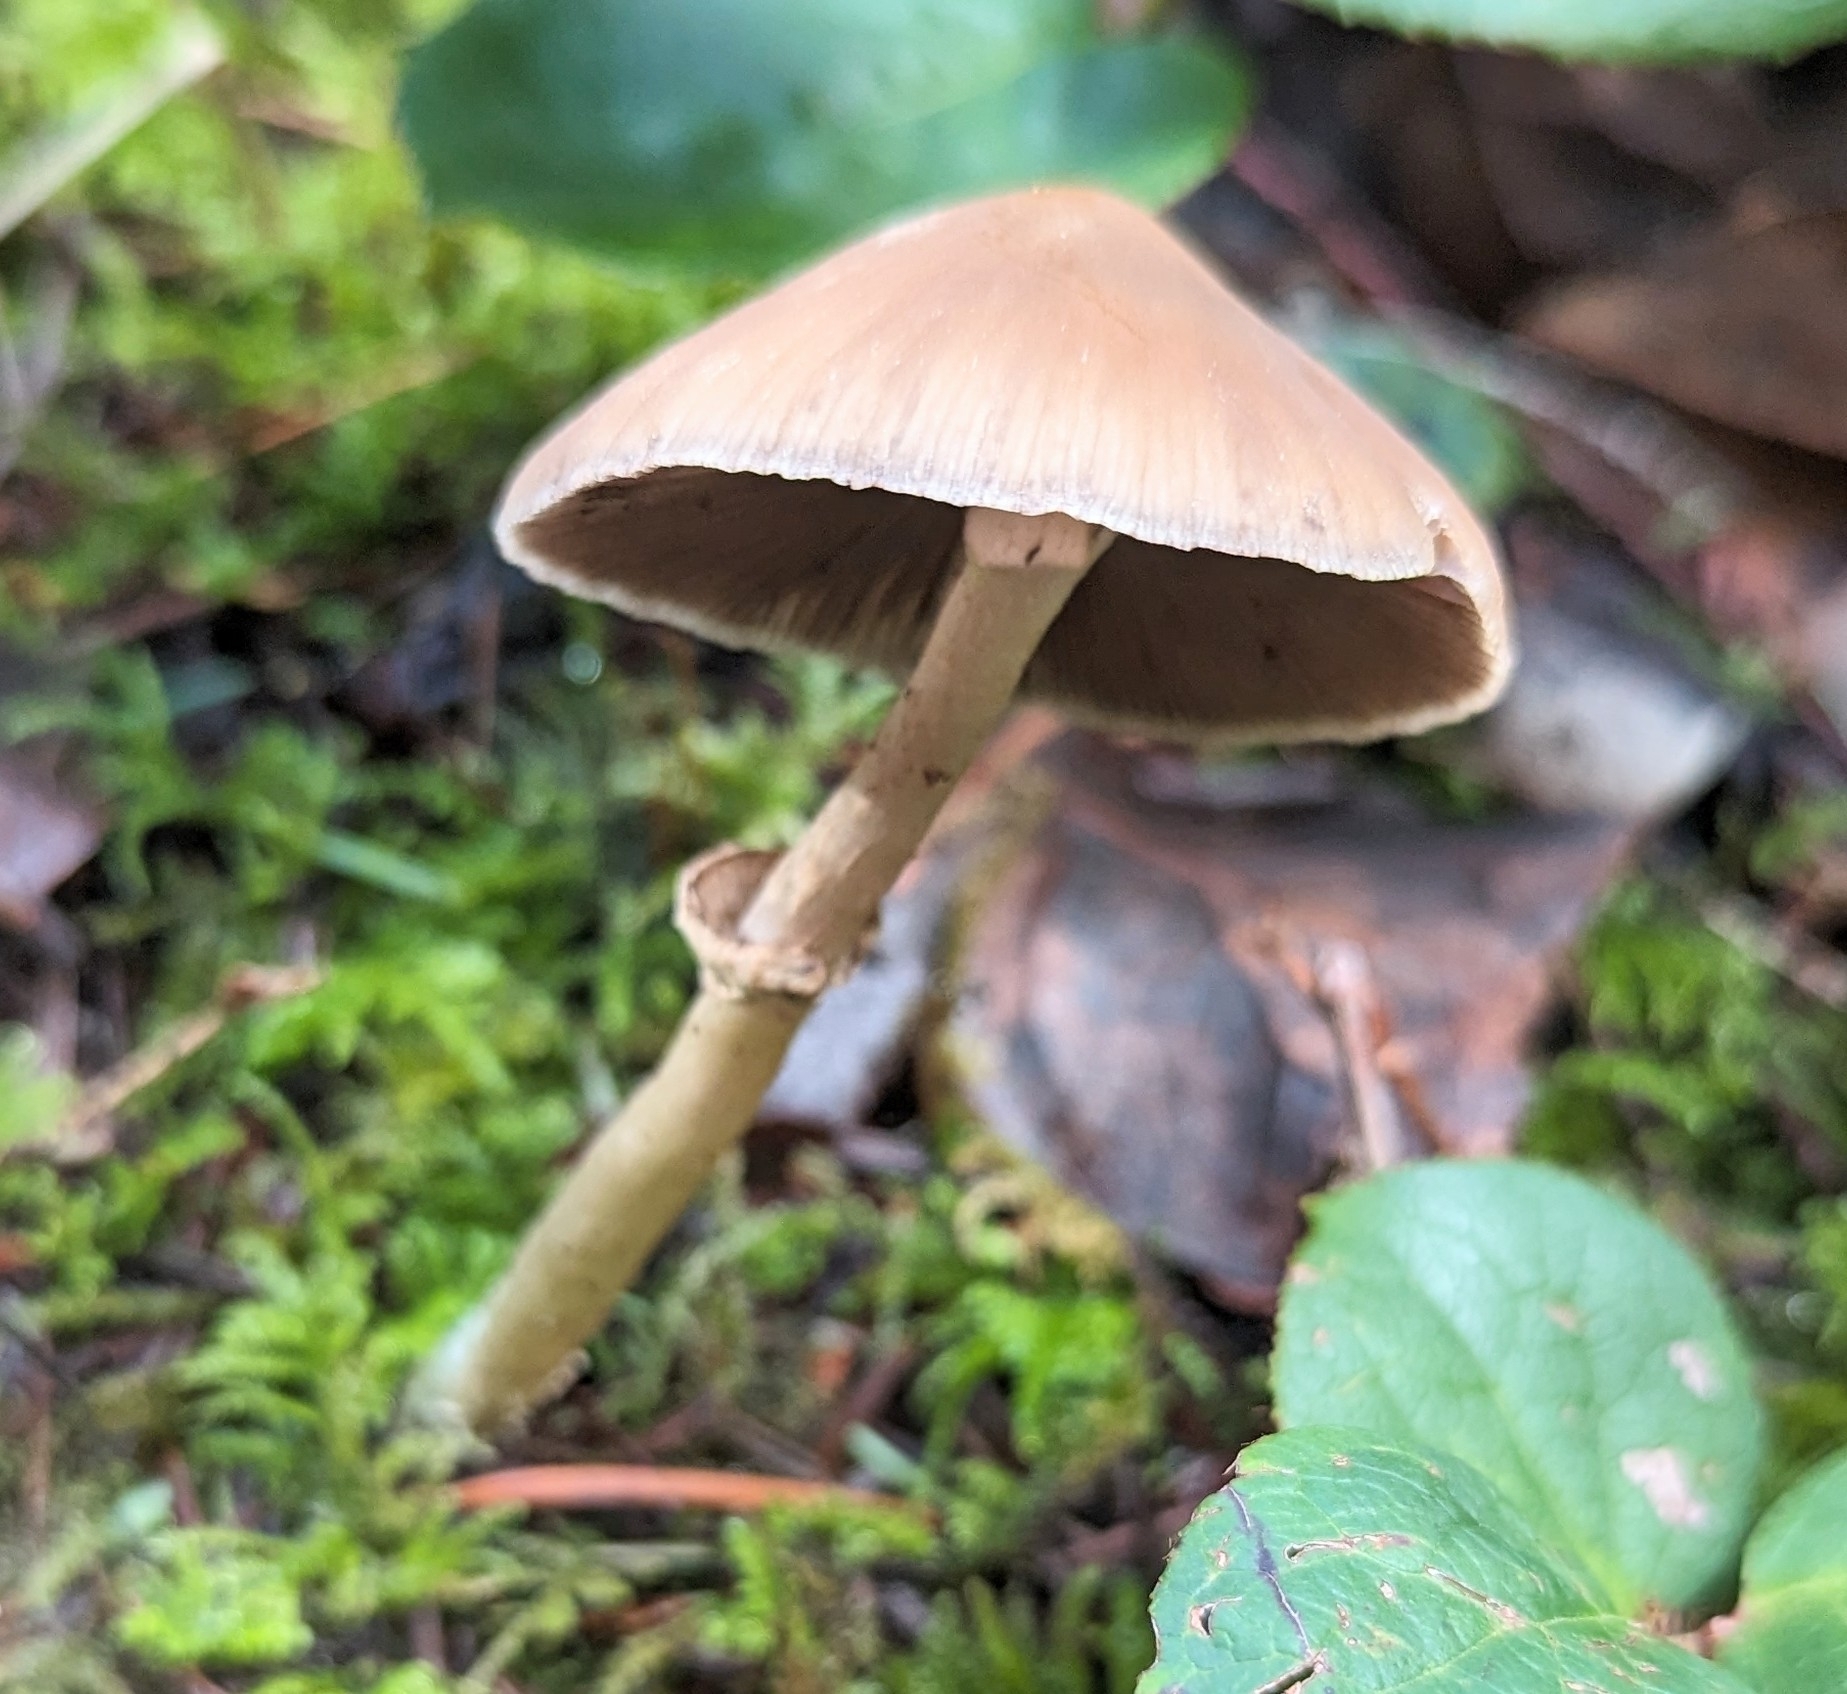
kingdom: Fungi
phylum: Basidiomycota
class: Agaricomycetes
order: Agaricales
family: Psathyrellaceae
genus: Psathyrella
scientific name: Psathyrella longistriata
